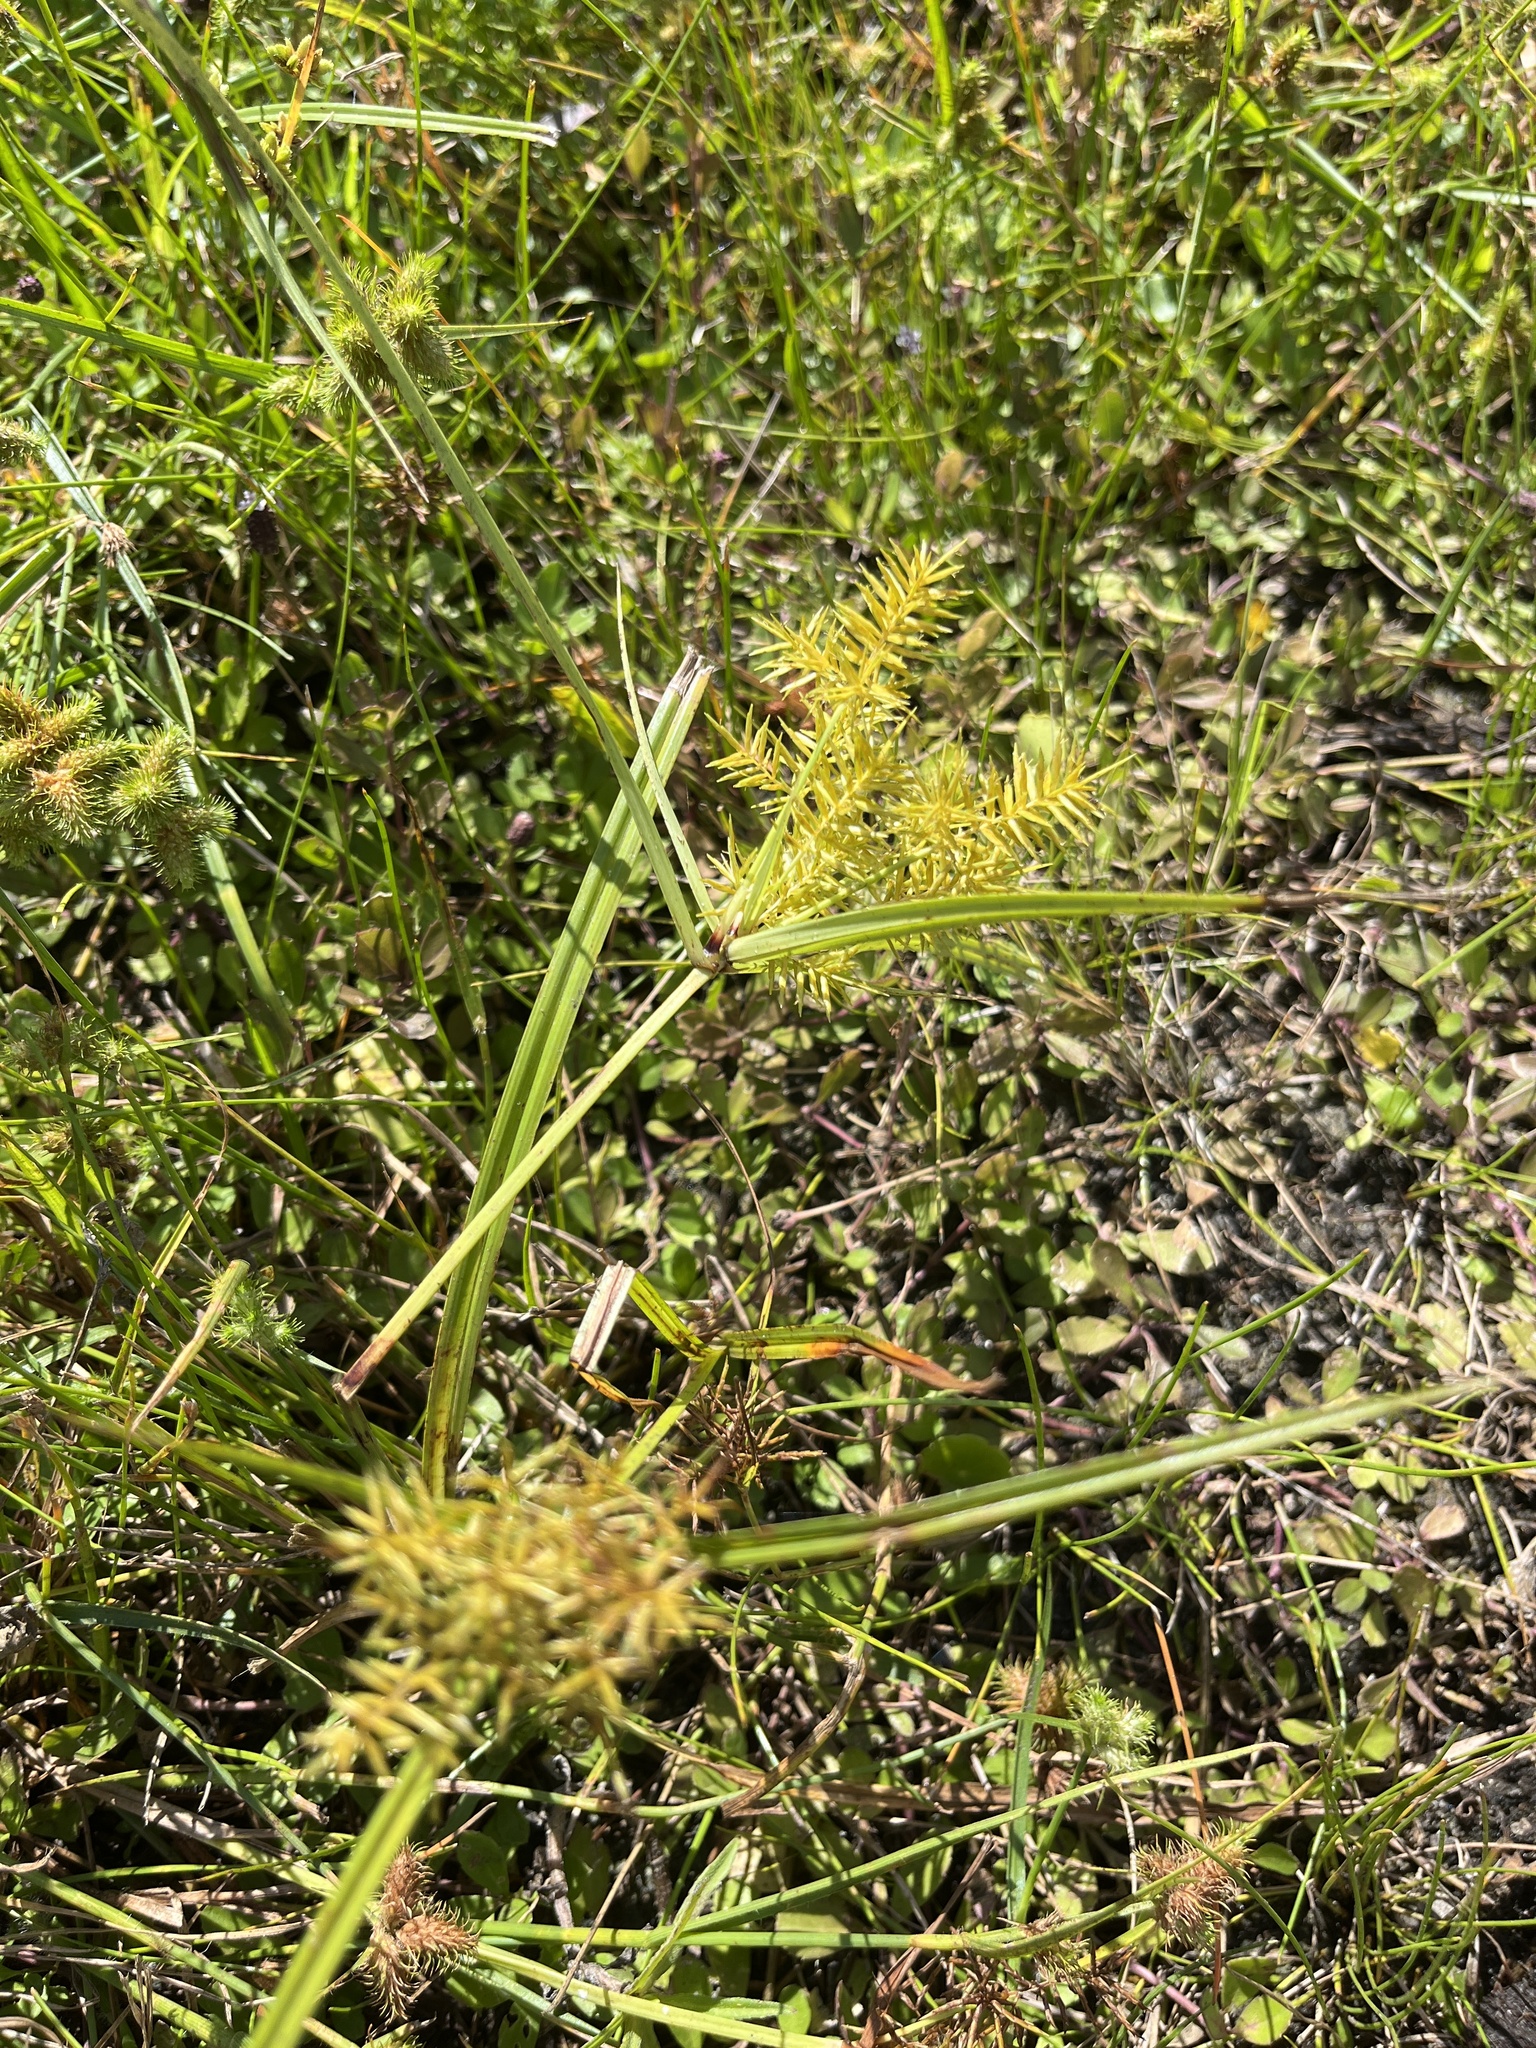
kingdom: Plantae
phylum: Tracheophyta
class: Liliopsida
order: Poales
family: Cyperaceae
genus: Cyperus
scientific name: Cyperus strigosus
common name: False nutsedge
